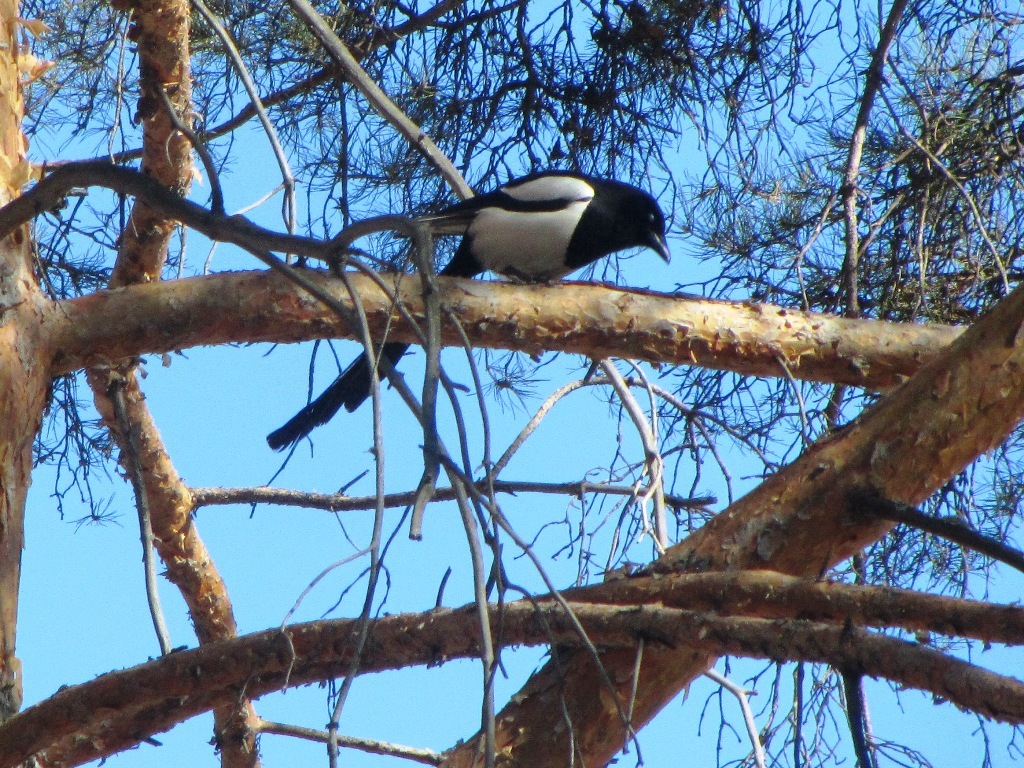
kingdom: Animalia
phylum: Chordata
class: Aves
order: Passeriformes
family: Corvidae
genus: Pica
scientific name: Pica pica
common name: Eurasian magpie
